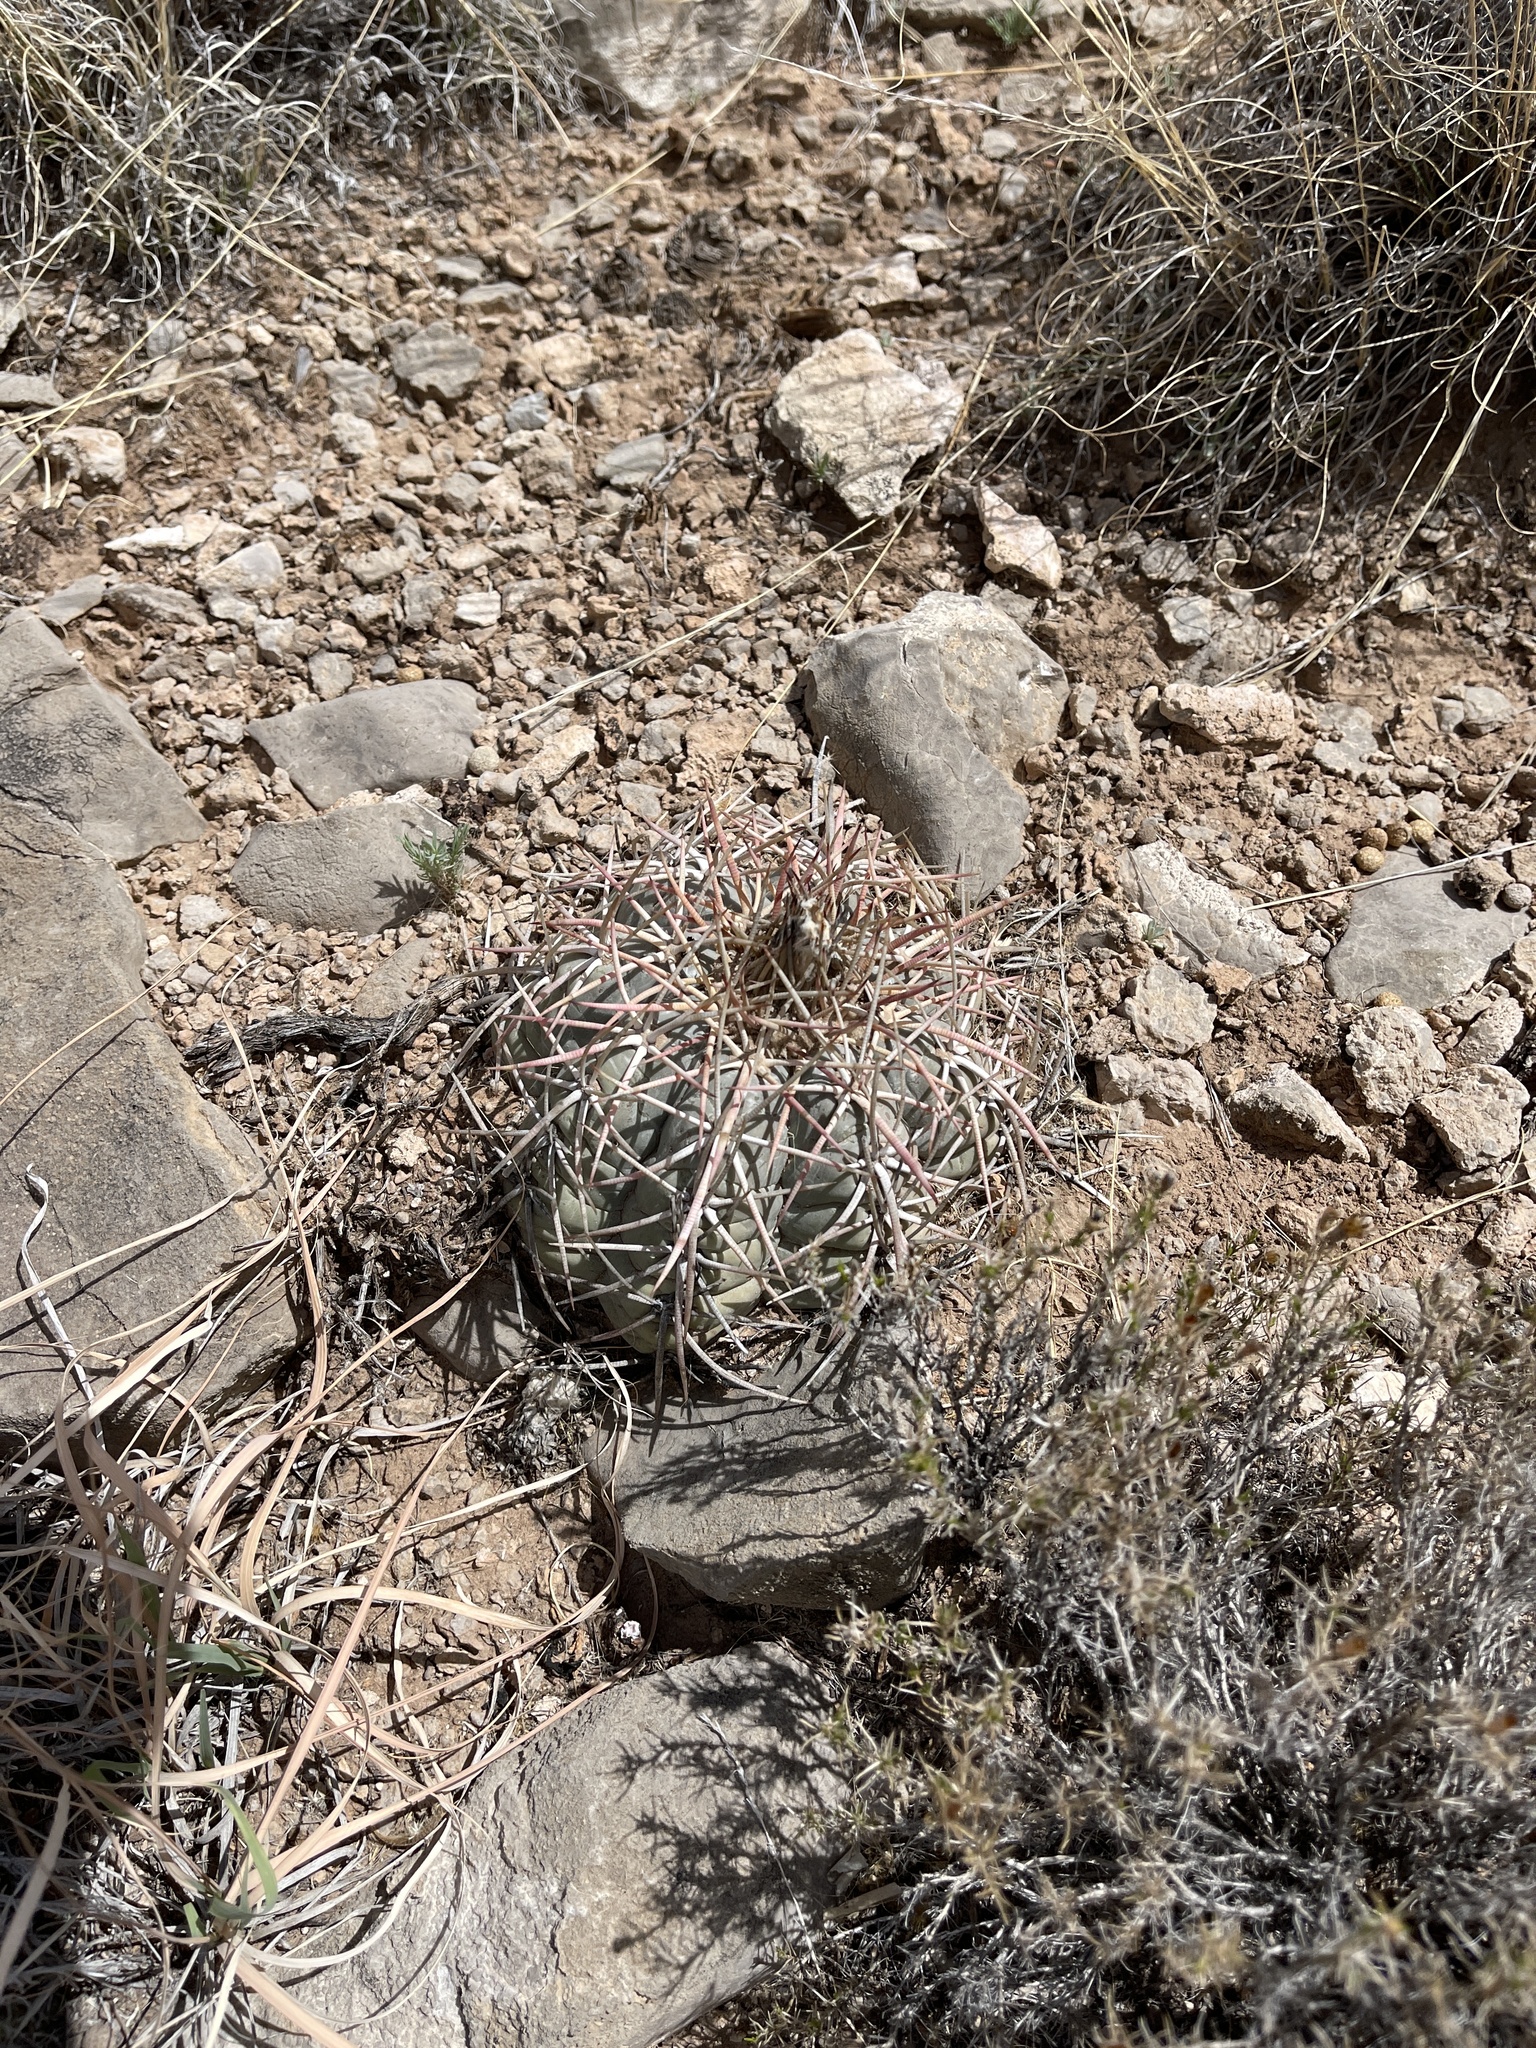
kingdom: Plantae
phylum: Tracheophyta
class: Magnoliopsida
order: Caryophyllales
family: Cactaceae
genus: Echinocactus
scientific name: Echinocactus horizonthalonius
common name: Devilshead
